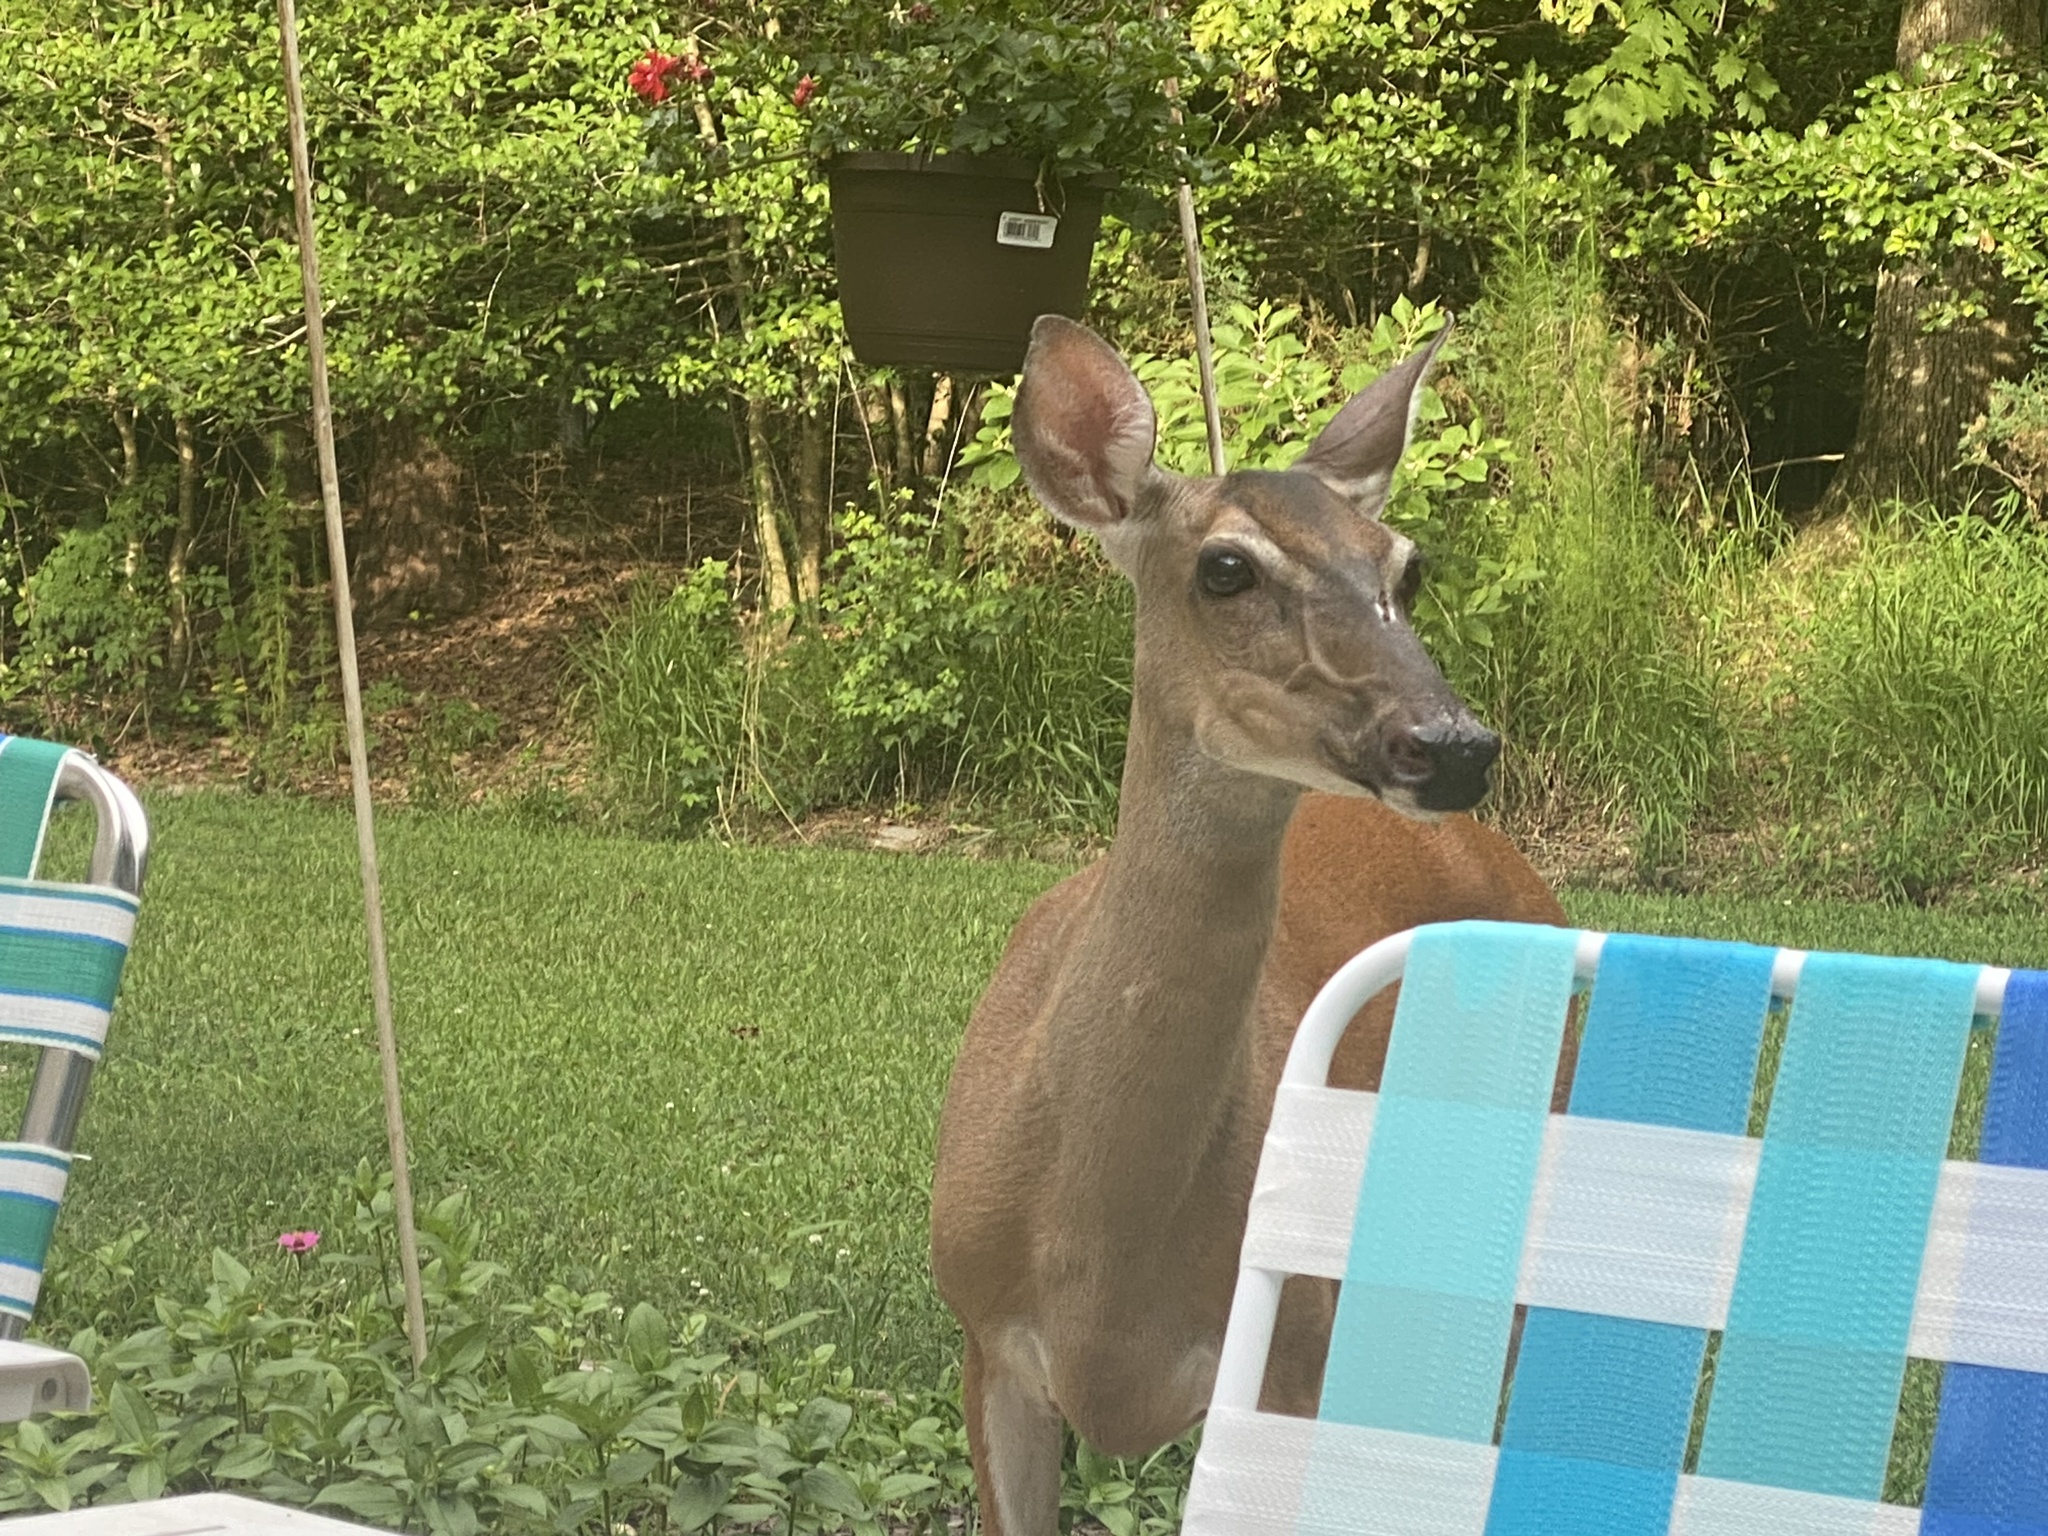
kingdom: Animalia
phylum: Chordata
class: Mammalia
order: Artiodactyla
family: Cervidae
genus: Odocoileus
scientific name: Odocoileus virginianus
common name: White-tailed deer
